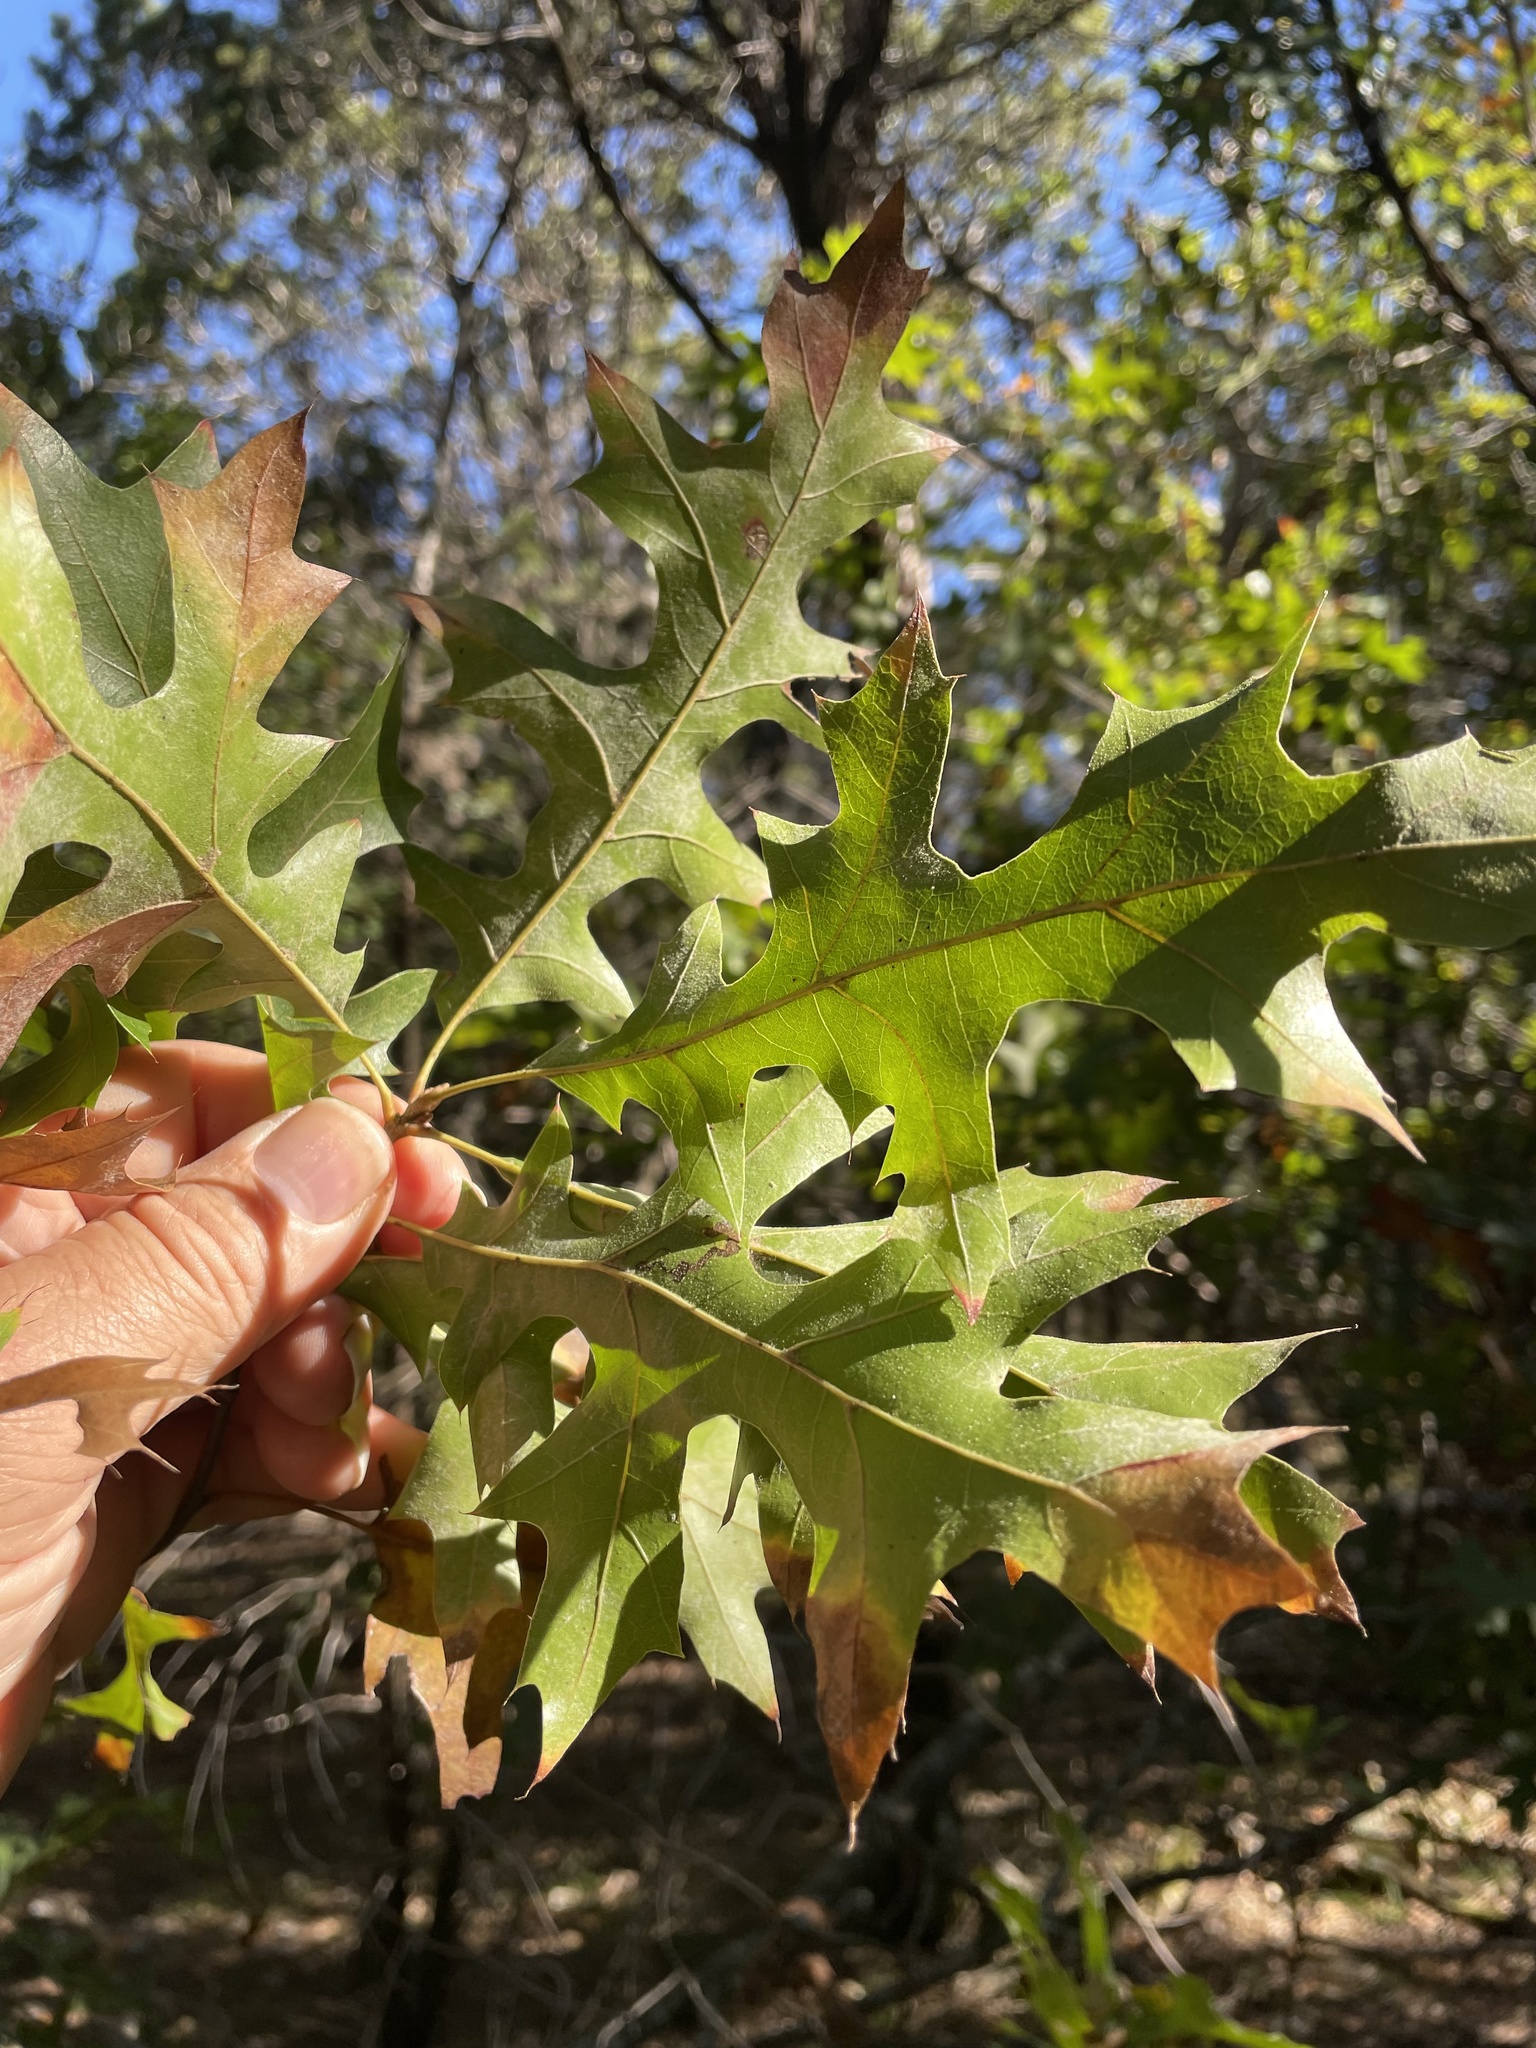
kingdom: Plantae
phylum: Tracheophyta
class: Magnoliopsida
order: Fagales
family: Fagaceae
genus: Quercus
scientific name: Quercus buckleyi
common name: Buckley oak
